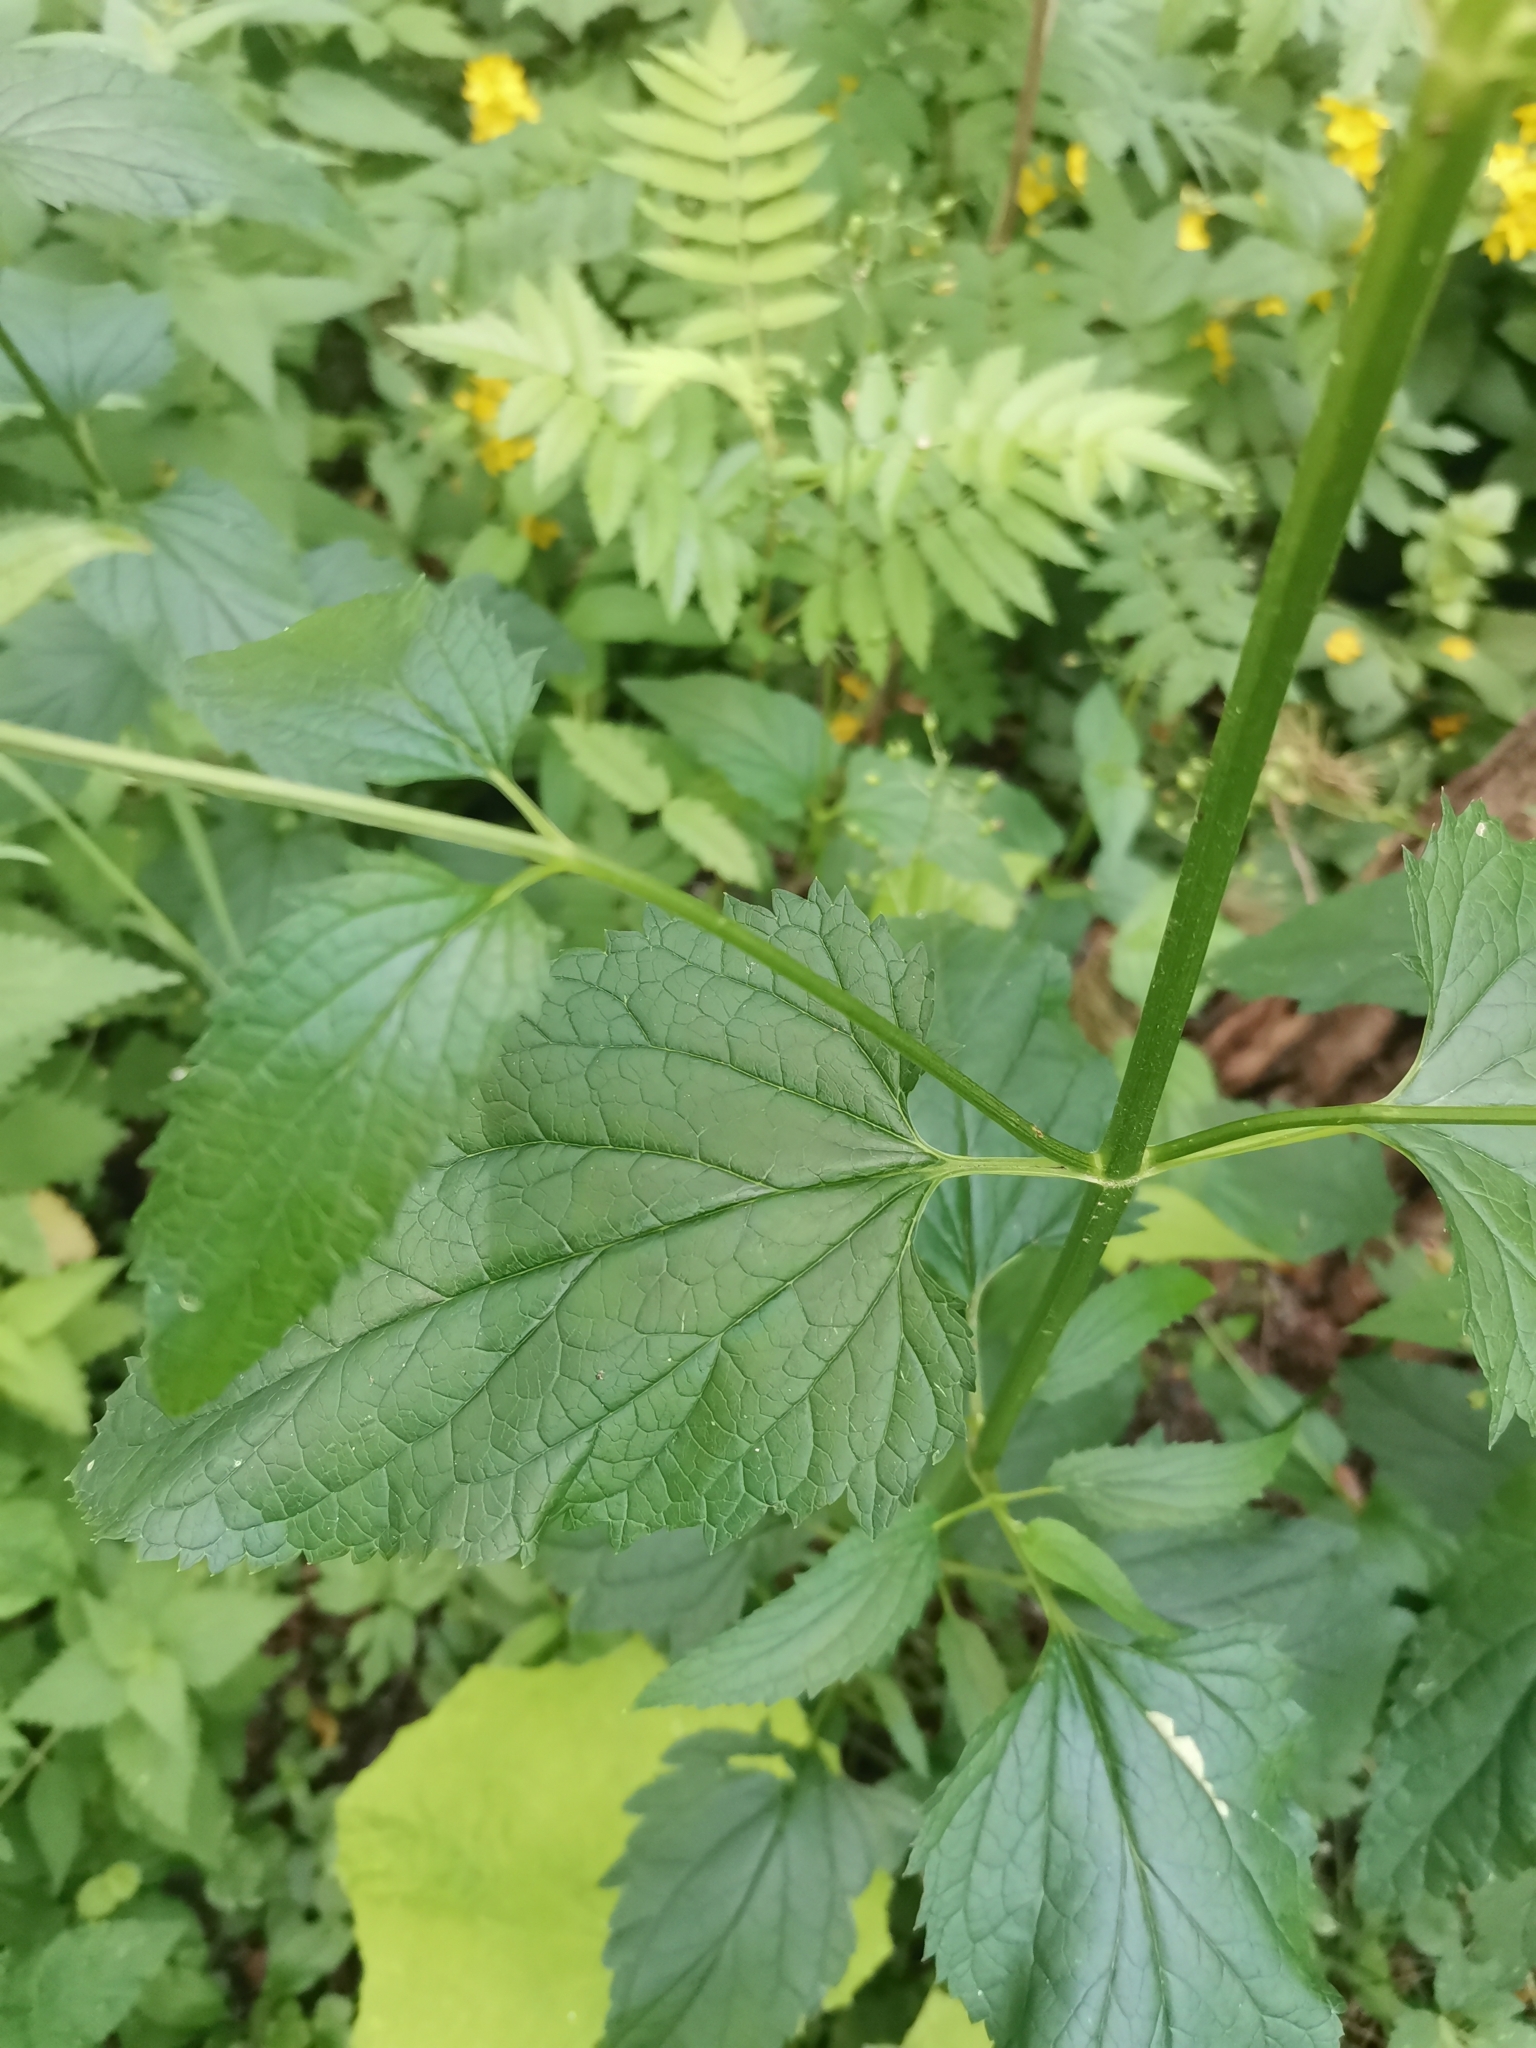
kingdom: Plantae
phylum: Tracheophyta
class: Magnoliopsida
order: Lamiales
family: Scrophulariaceae
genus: Scrophularia
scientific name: Scrophularia nodosa
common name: Common figwort
